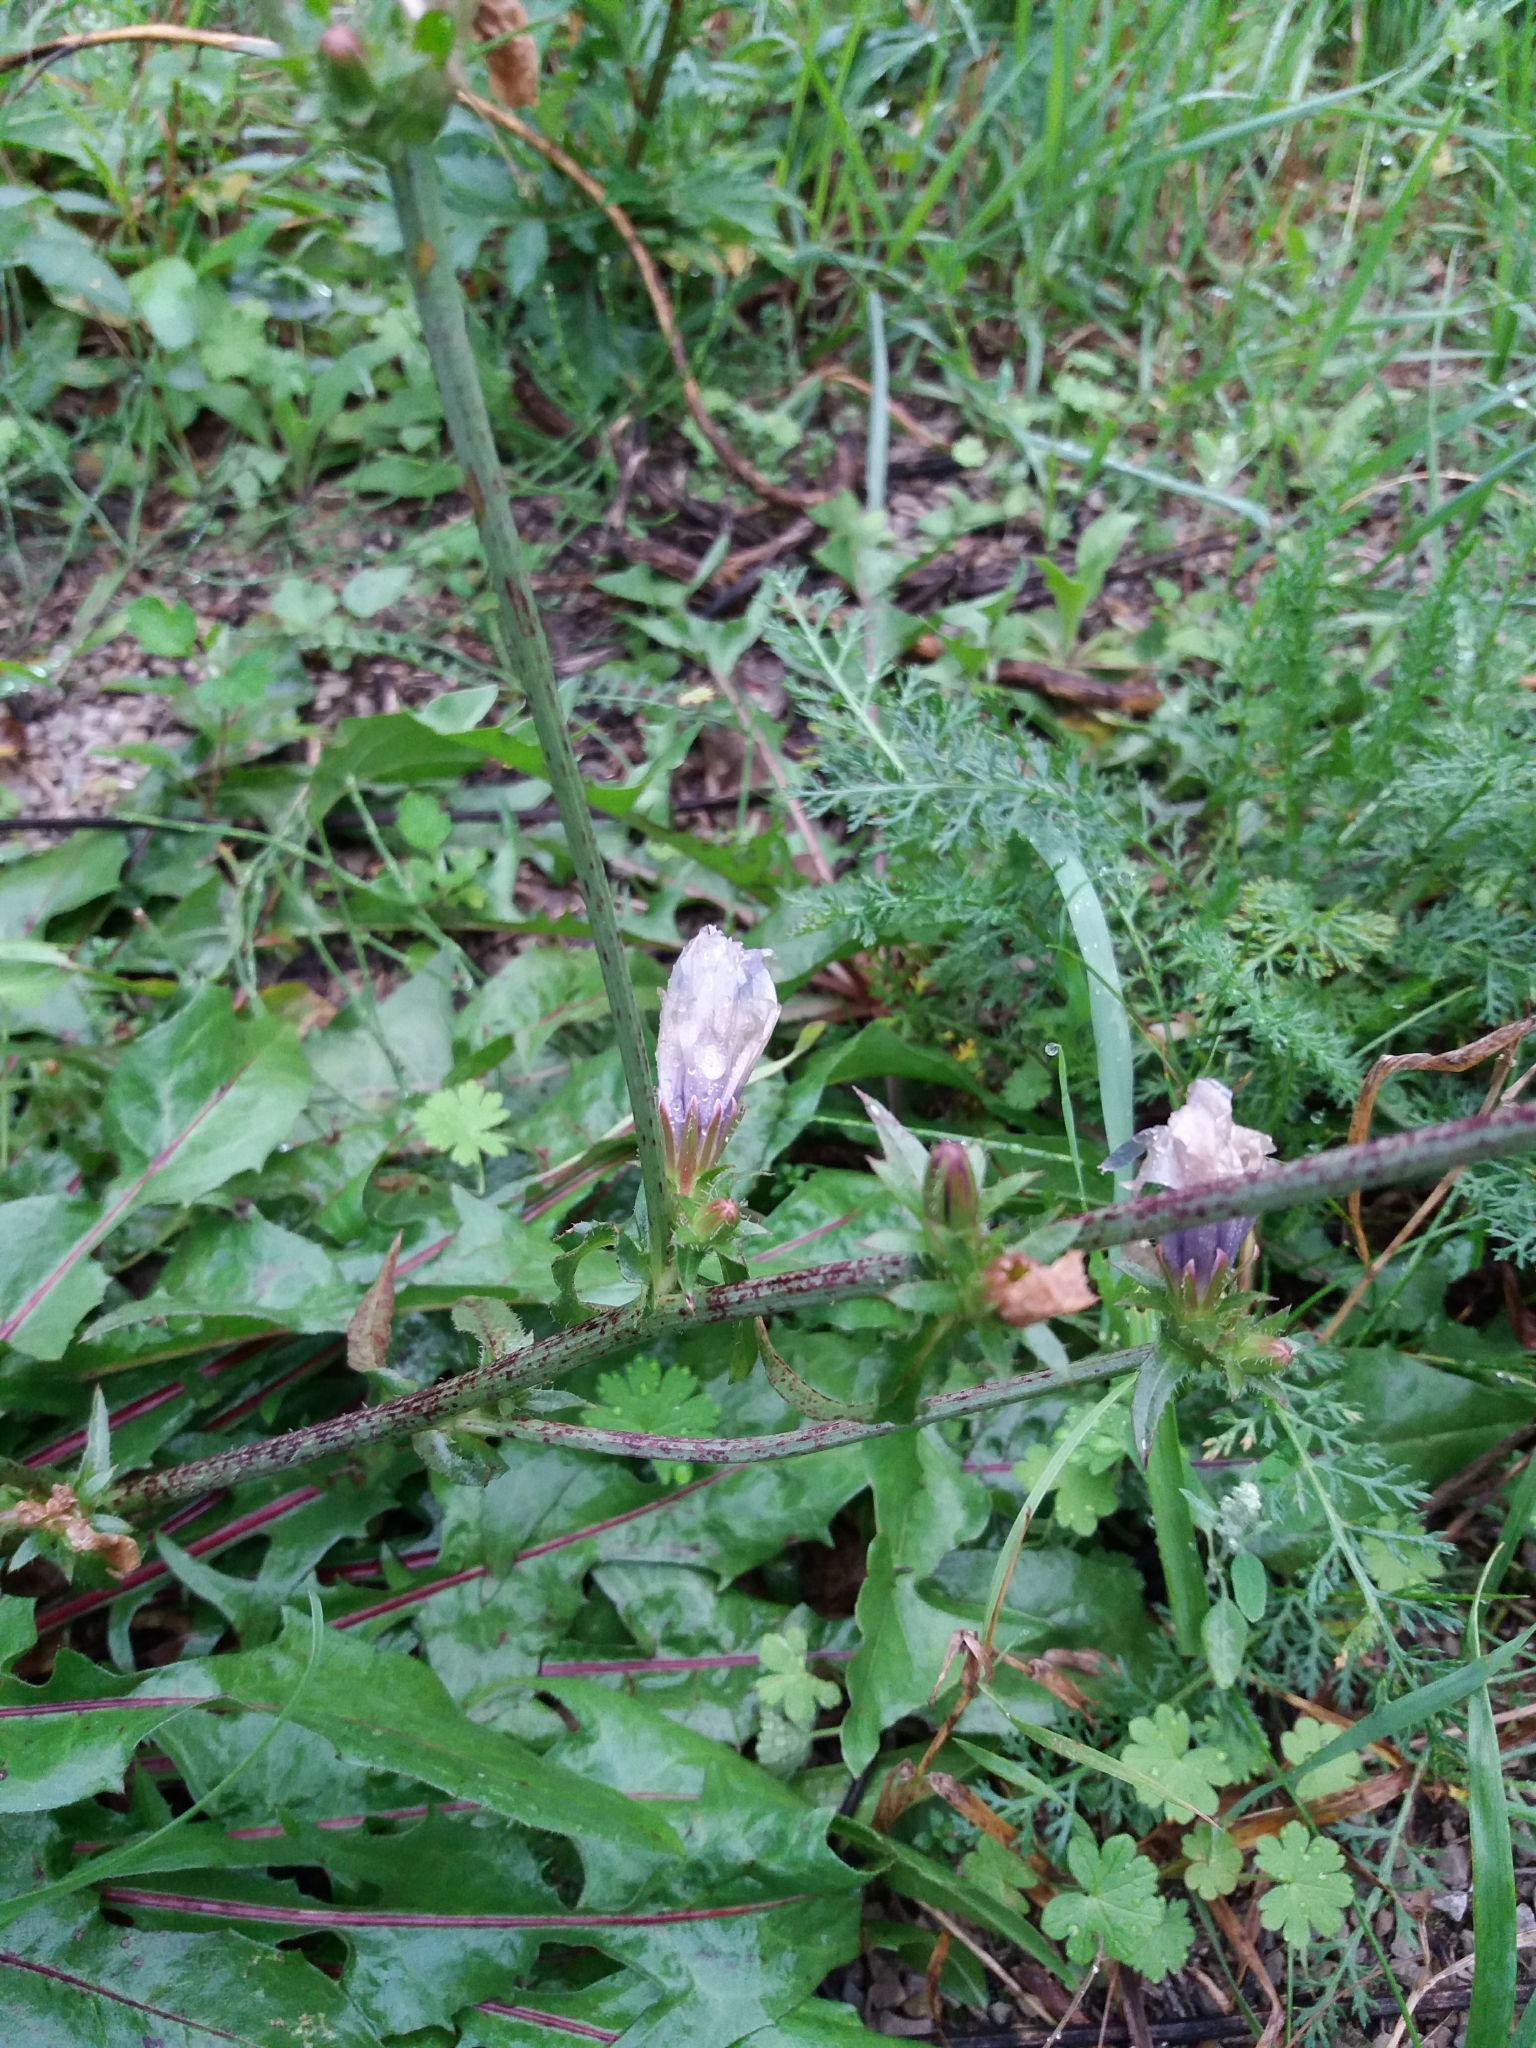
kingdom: Plantae
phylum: Tracheophyta
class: Magnoliopsida
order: Asterales
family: Asteraceae
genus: Cichorium
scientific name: Cichorium intybus
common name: Chicory
